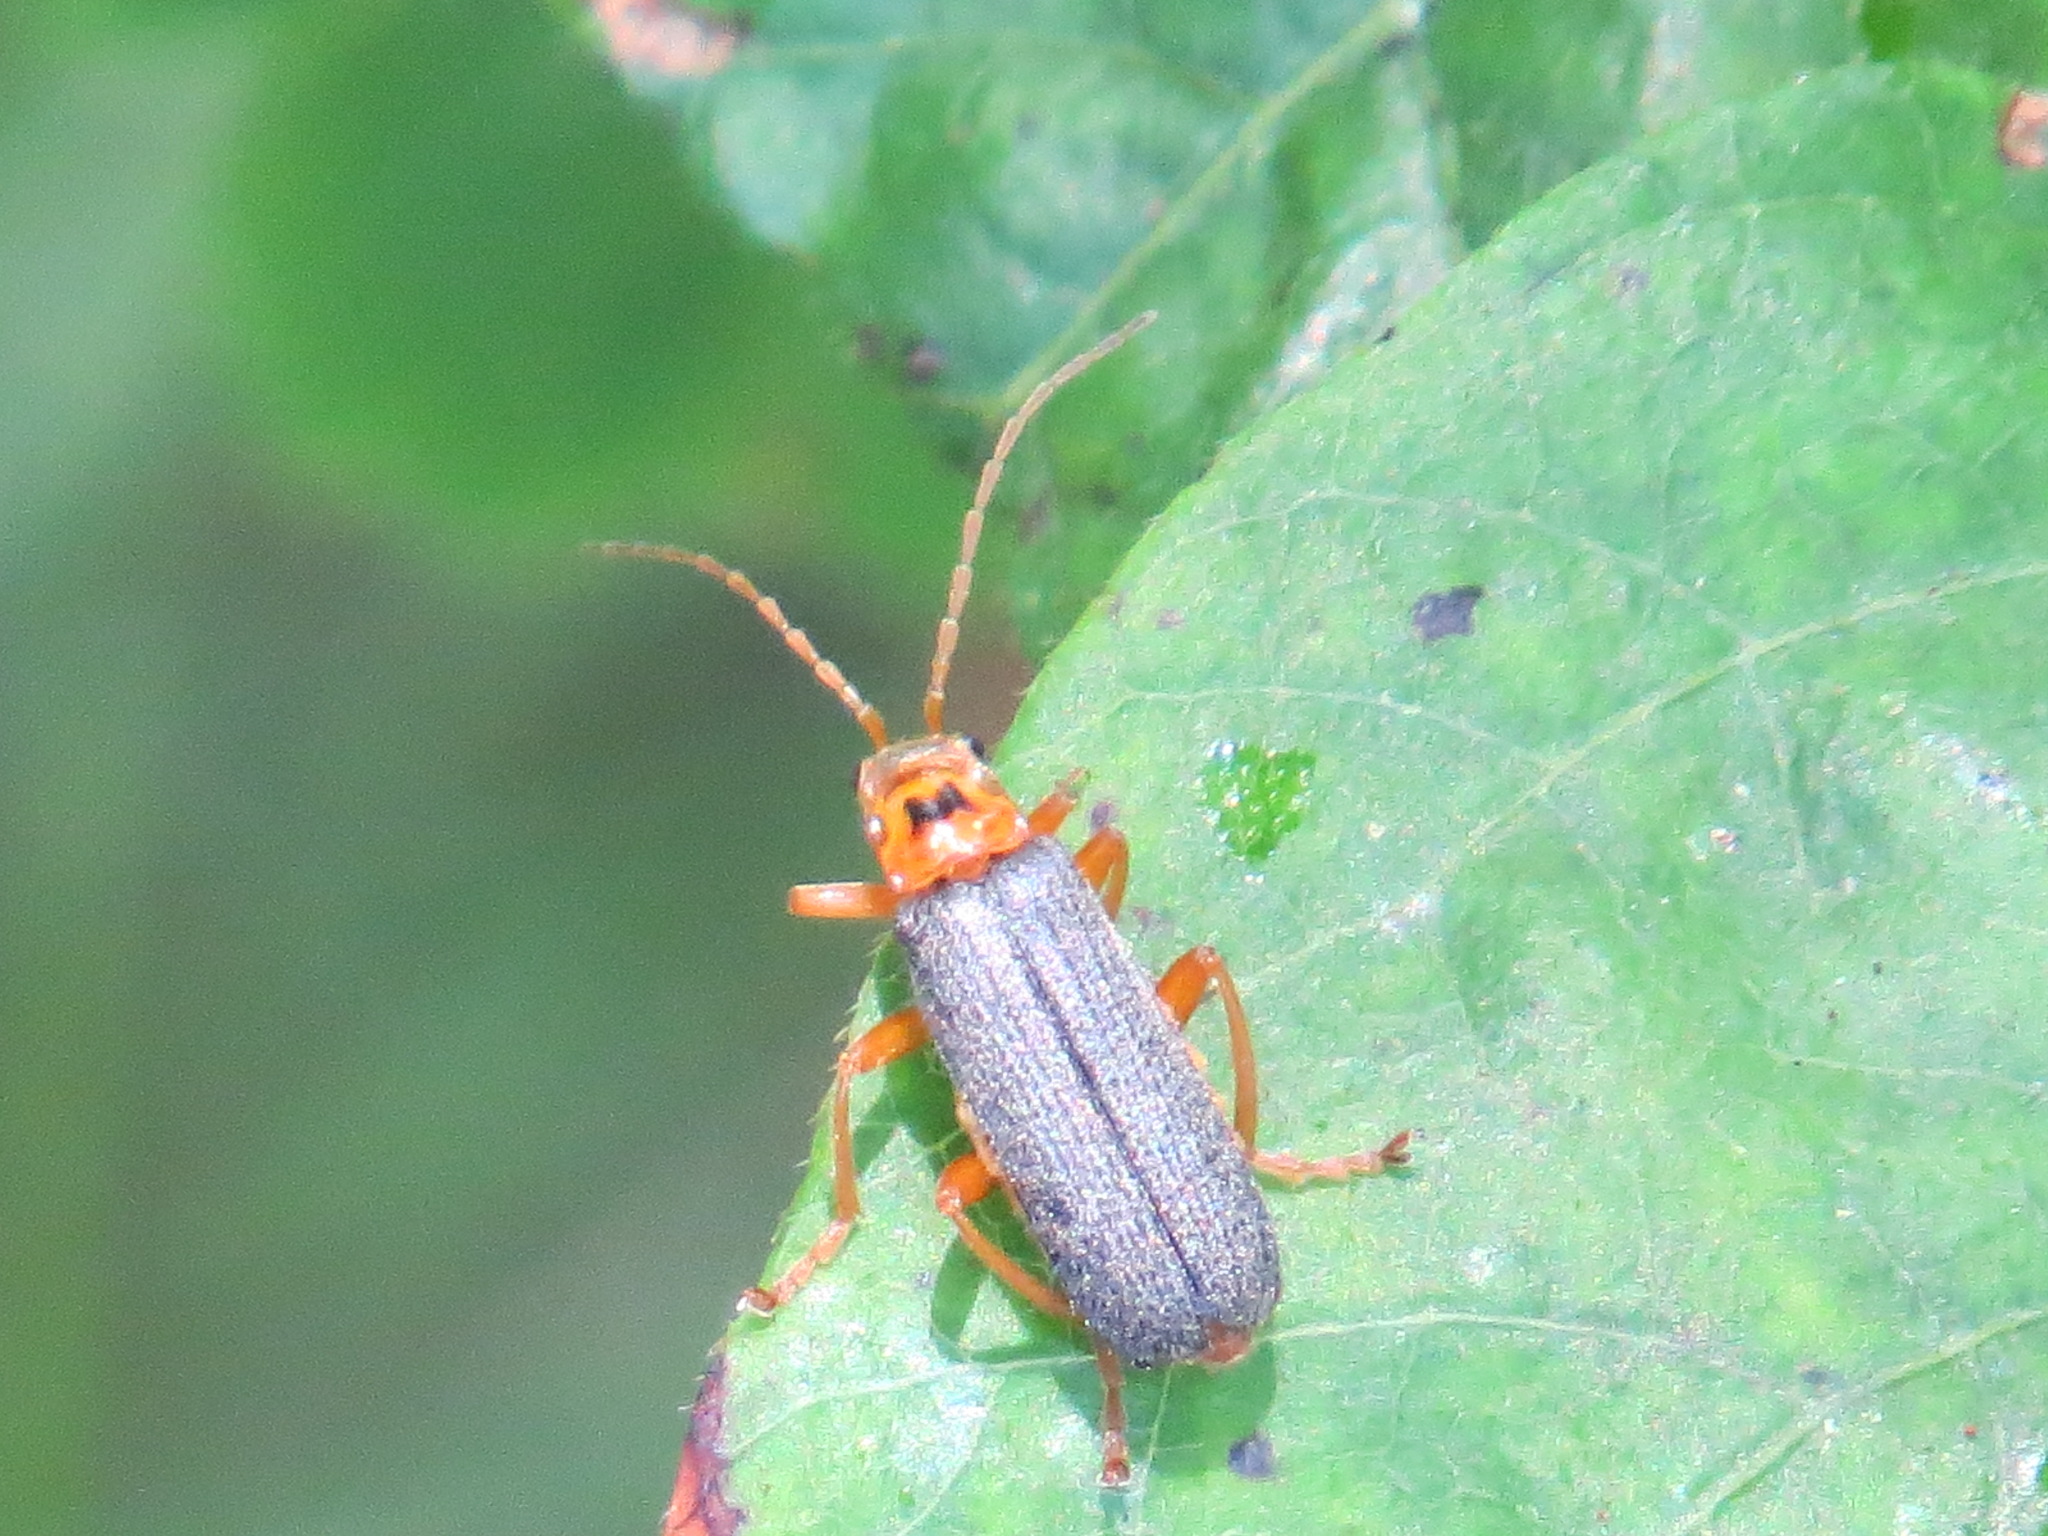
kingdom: Animalia
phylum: Arthropoda
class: Insecta
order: Coleoptera
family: Cantharidae
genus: Cultellunguis
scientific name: Cultellunguis americanus
